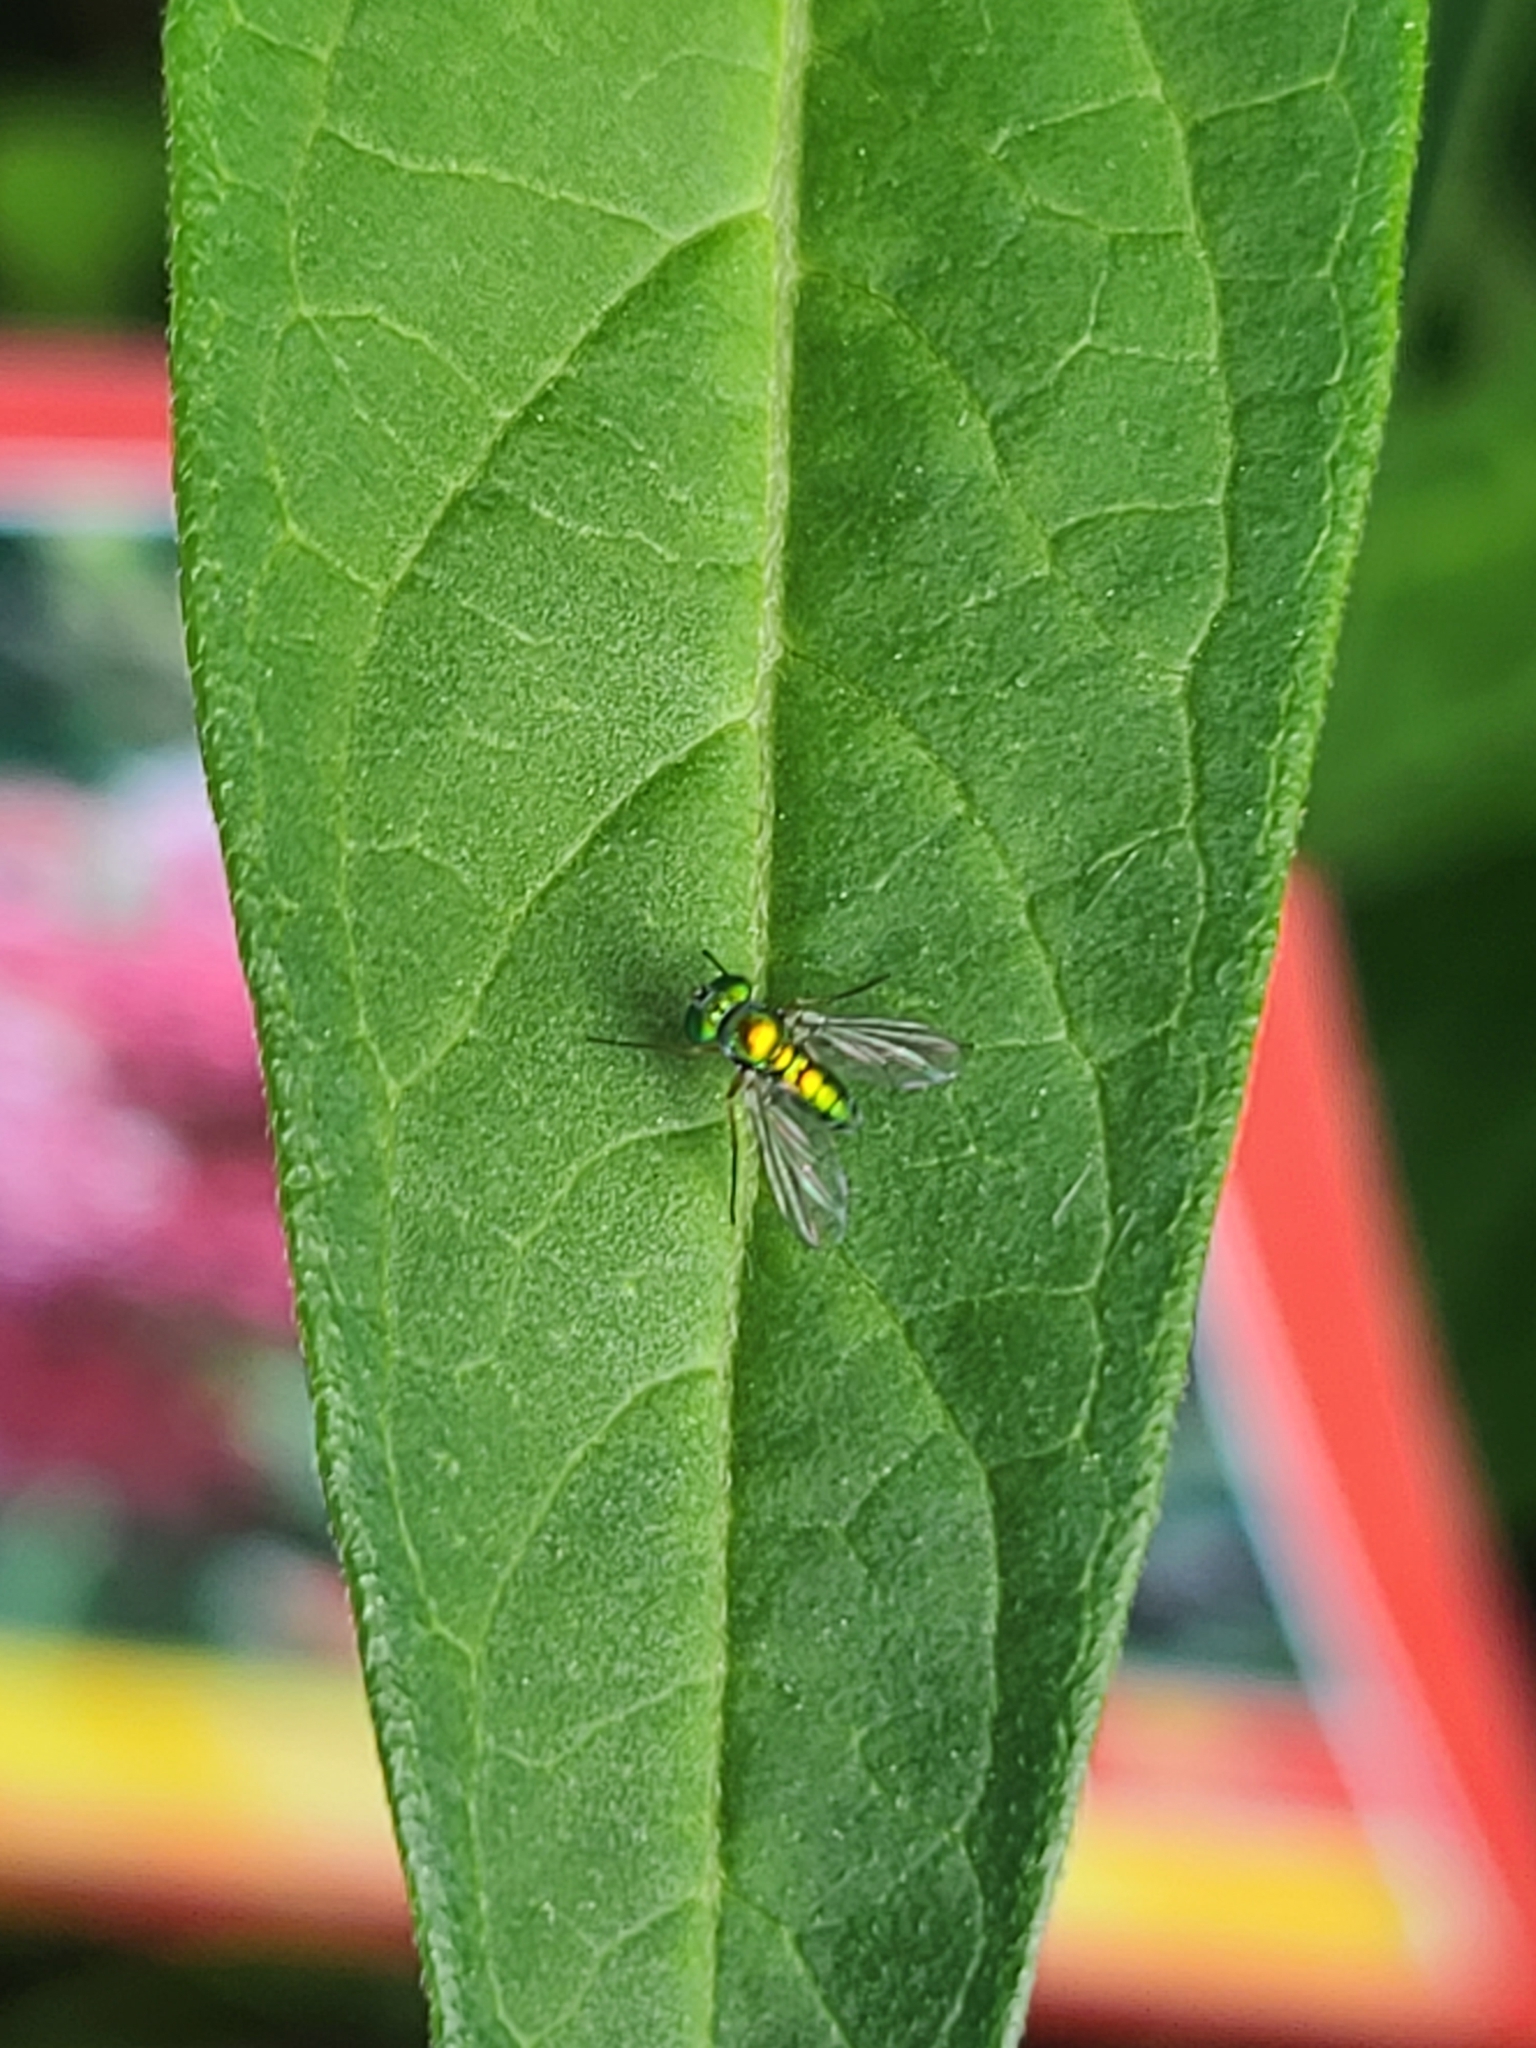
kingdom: Animalia
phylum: Arthropoda
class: Insecta
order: Diptera
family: Dolichopodidae
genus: Condylostylus
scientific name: Condylostylus
